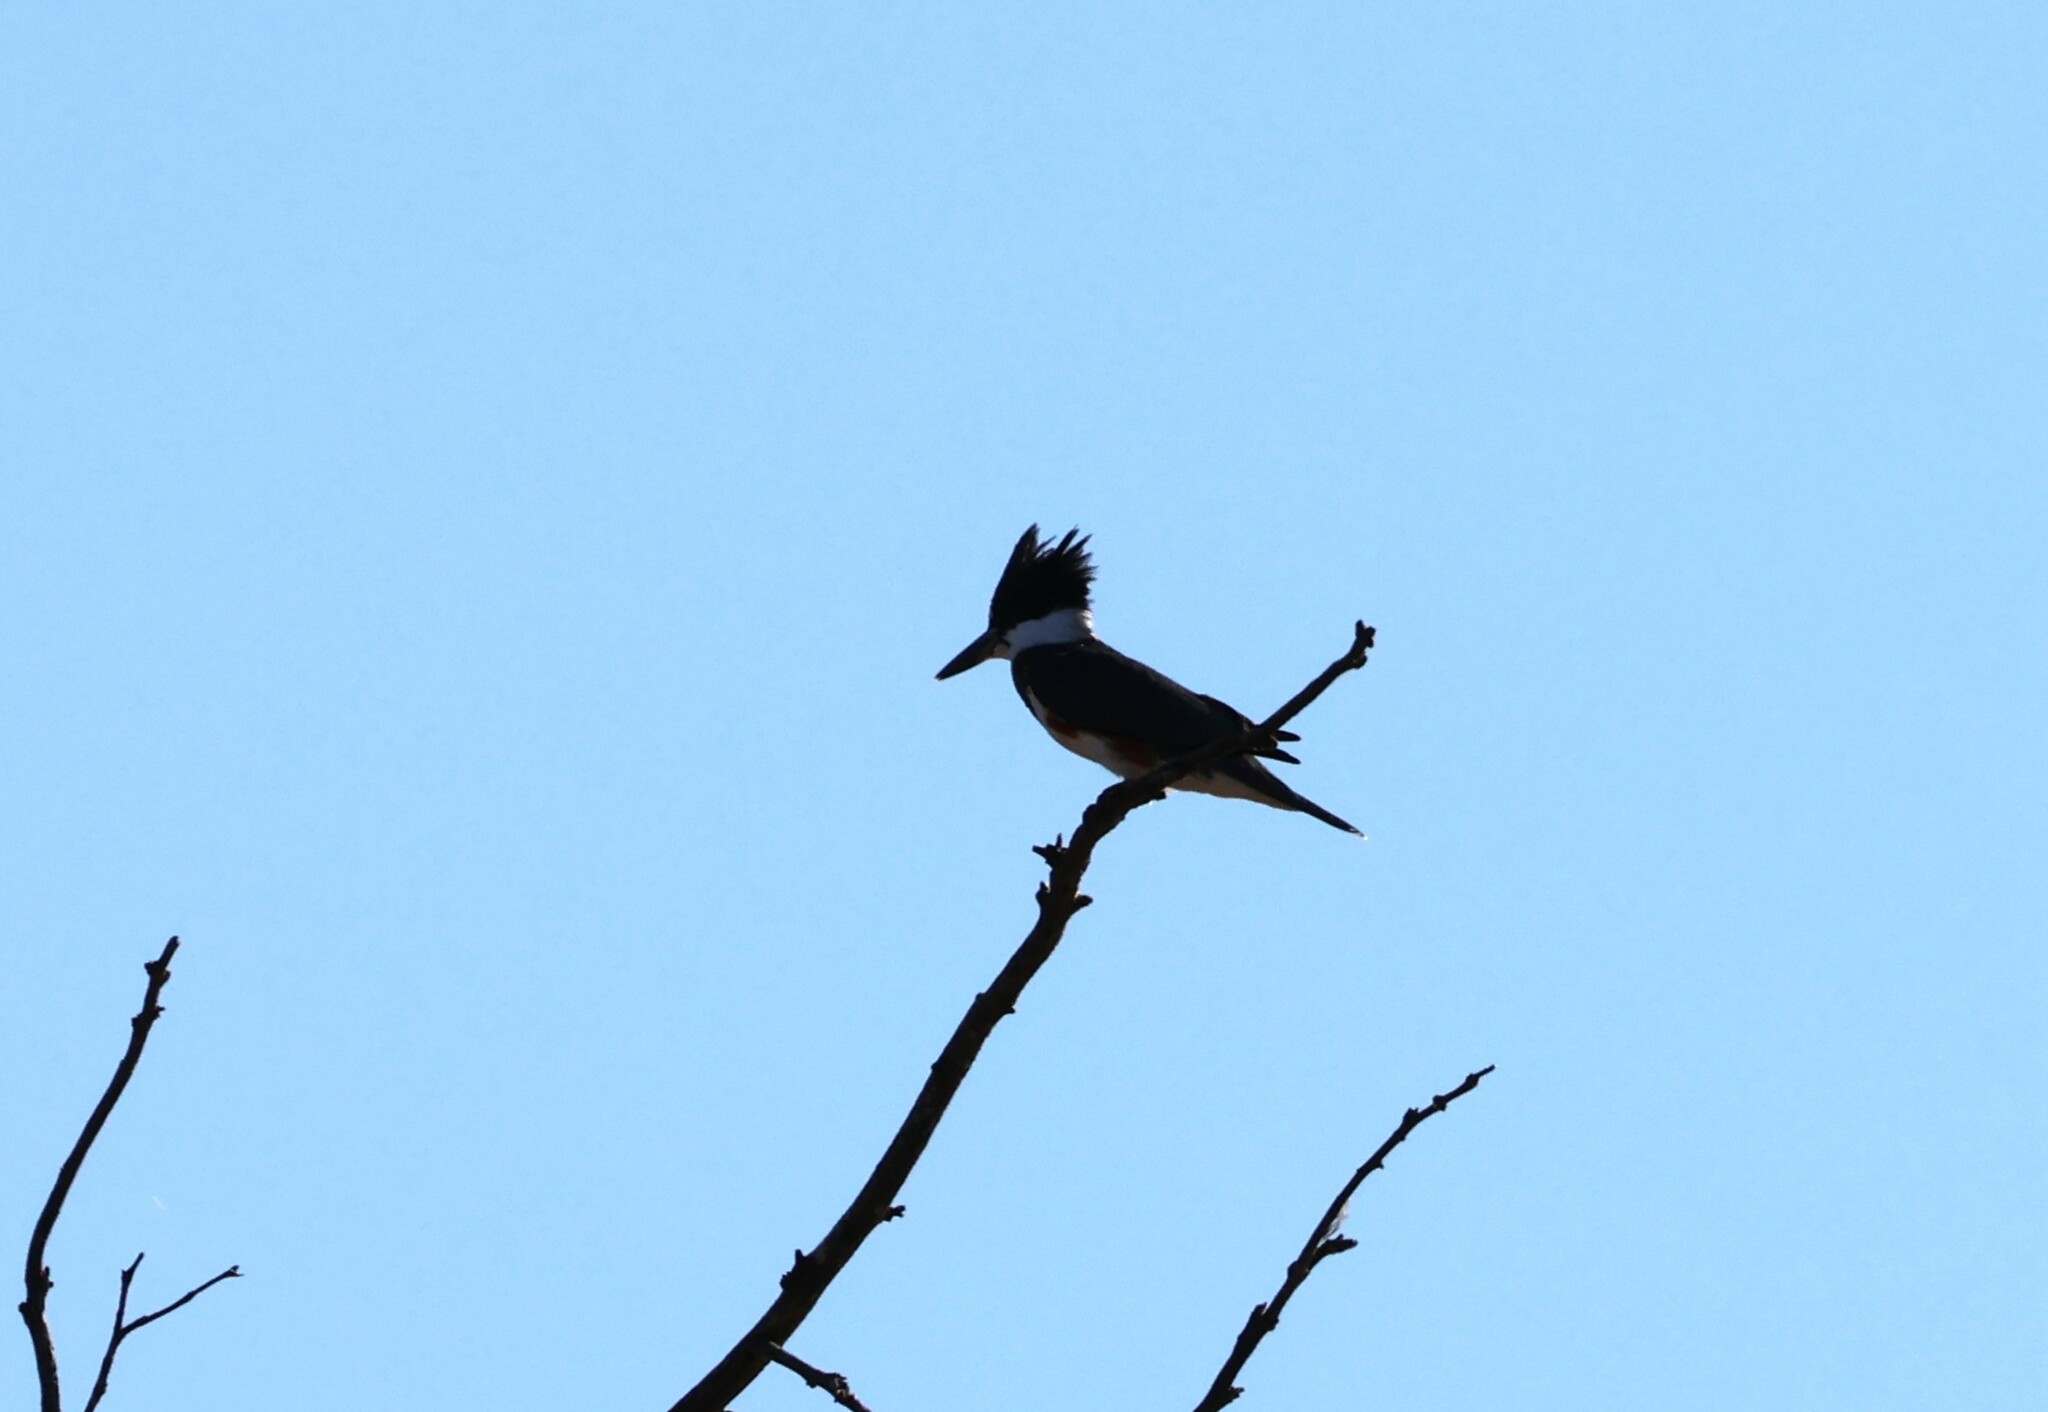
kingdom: Animalia
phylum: Chordata
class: Aves
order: Coraciiformes
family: Alcedinidae
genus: Megaceryle
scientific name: Megaceryle alcyon
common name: Belted kingfisher
